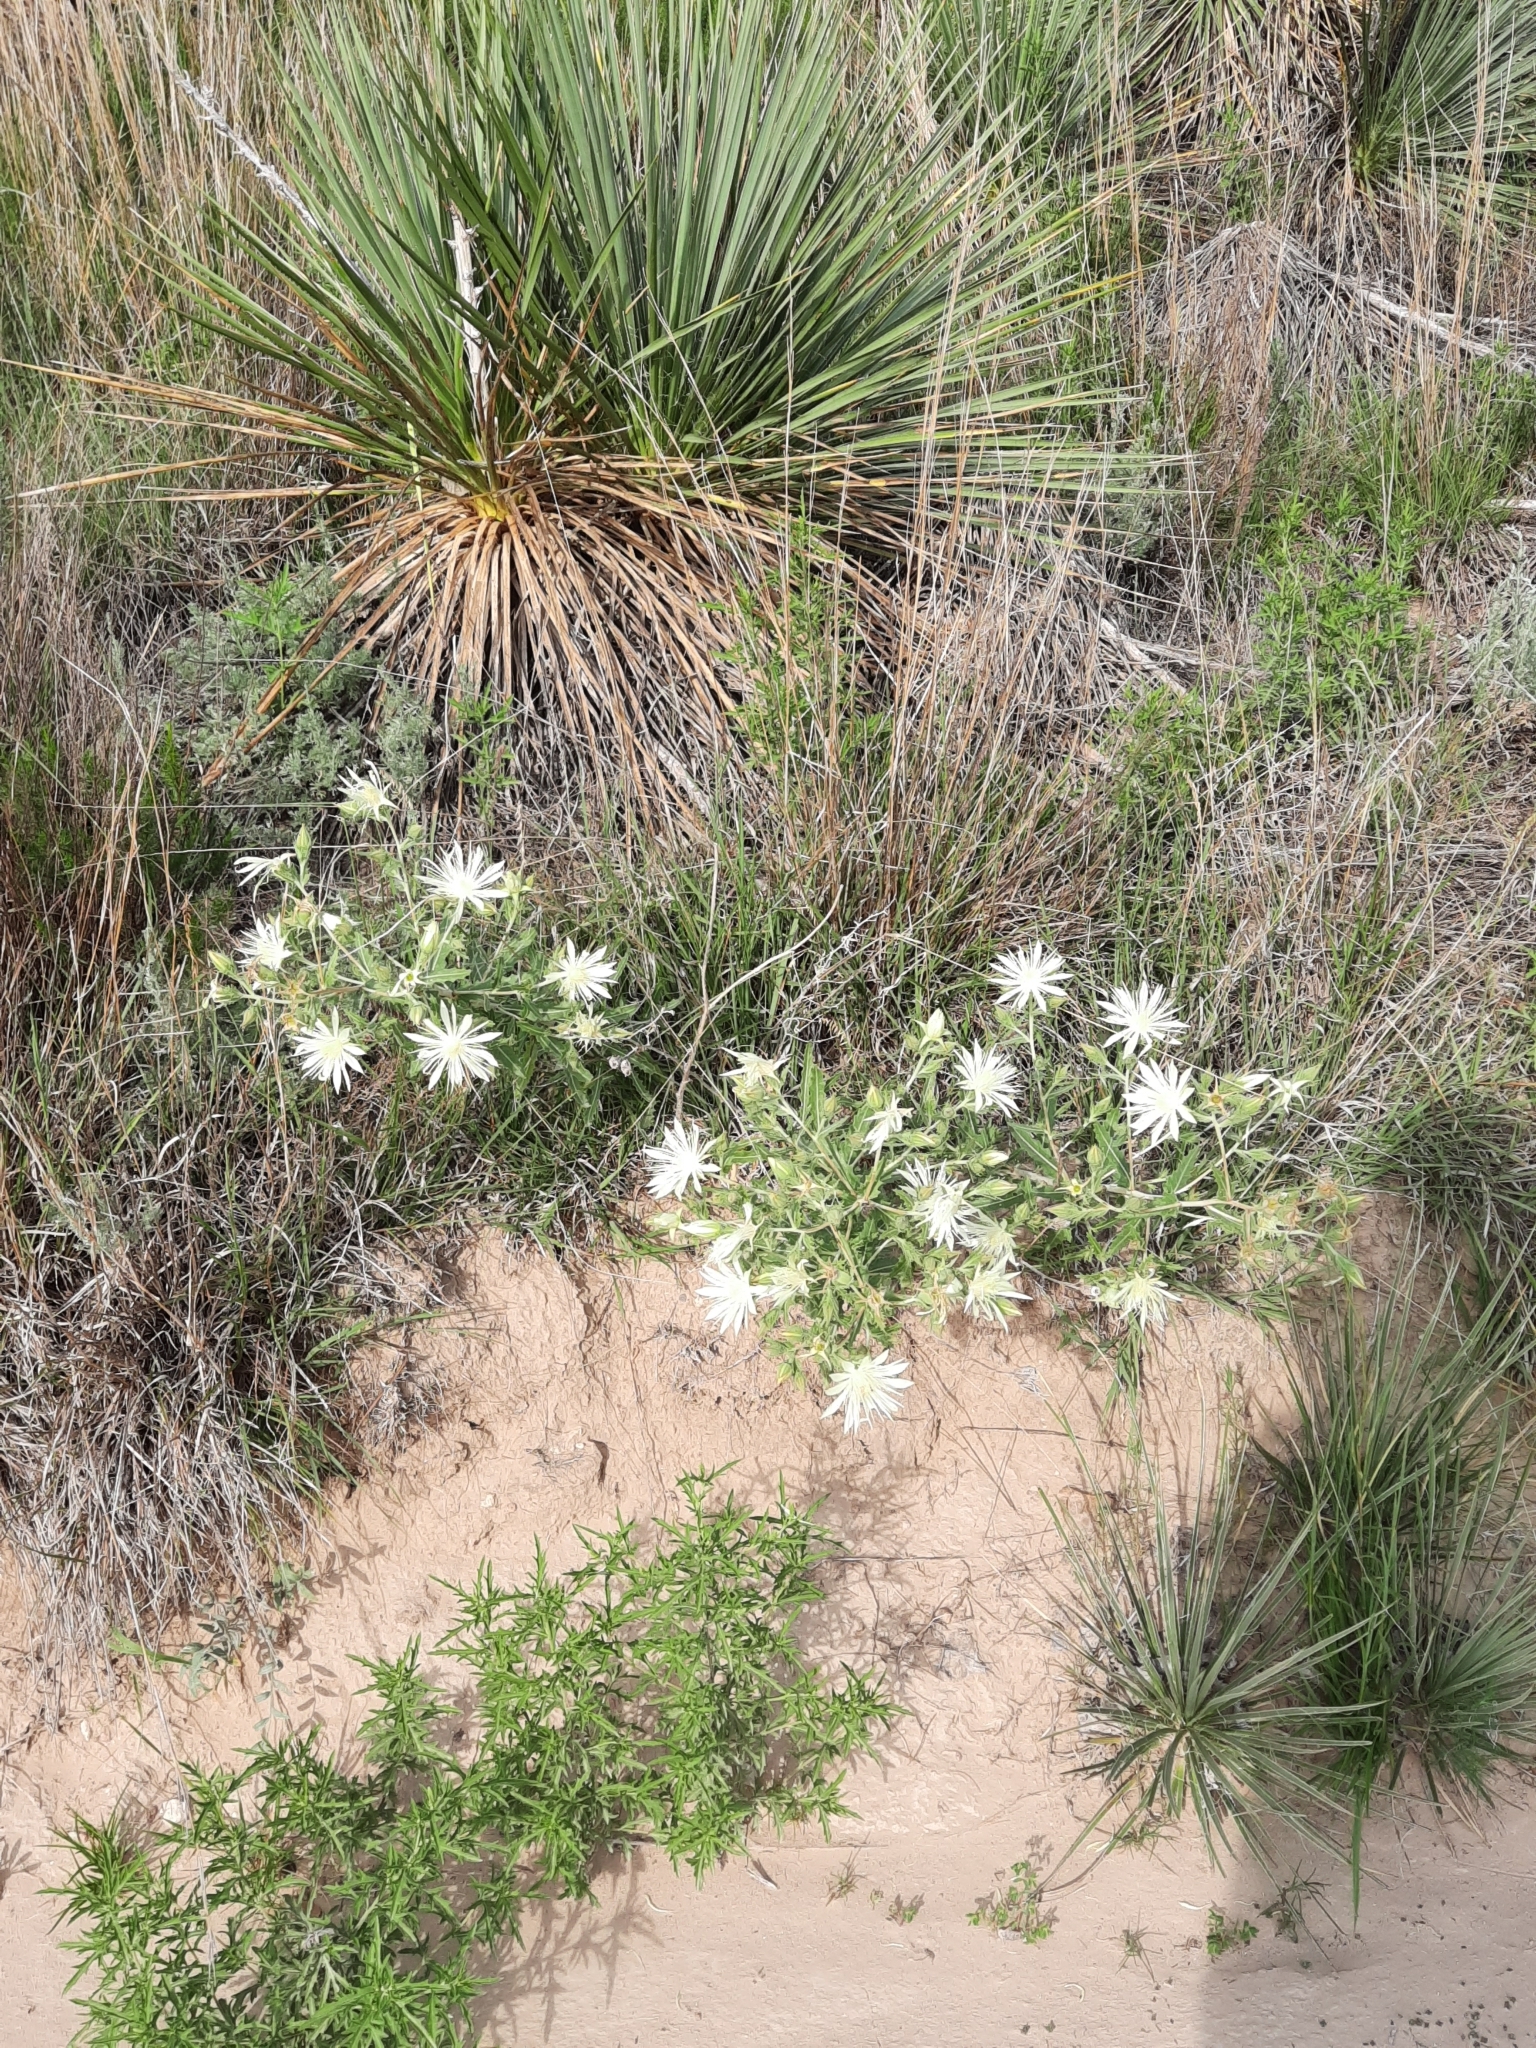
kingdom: Plantae
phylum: Tracheophyta
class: Magnoliopsida
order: Cornales
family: Loasaceae
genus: Mentzelia
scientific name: Mentzelia nuda
